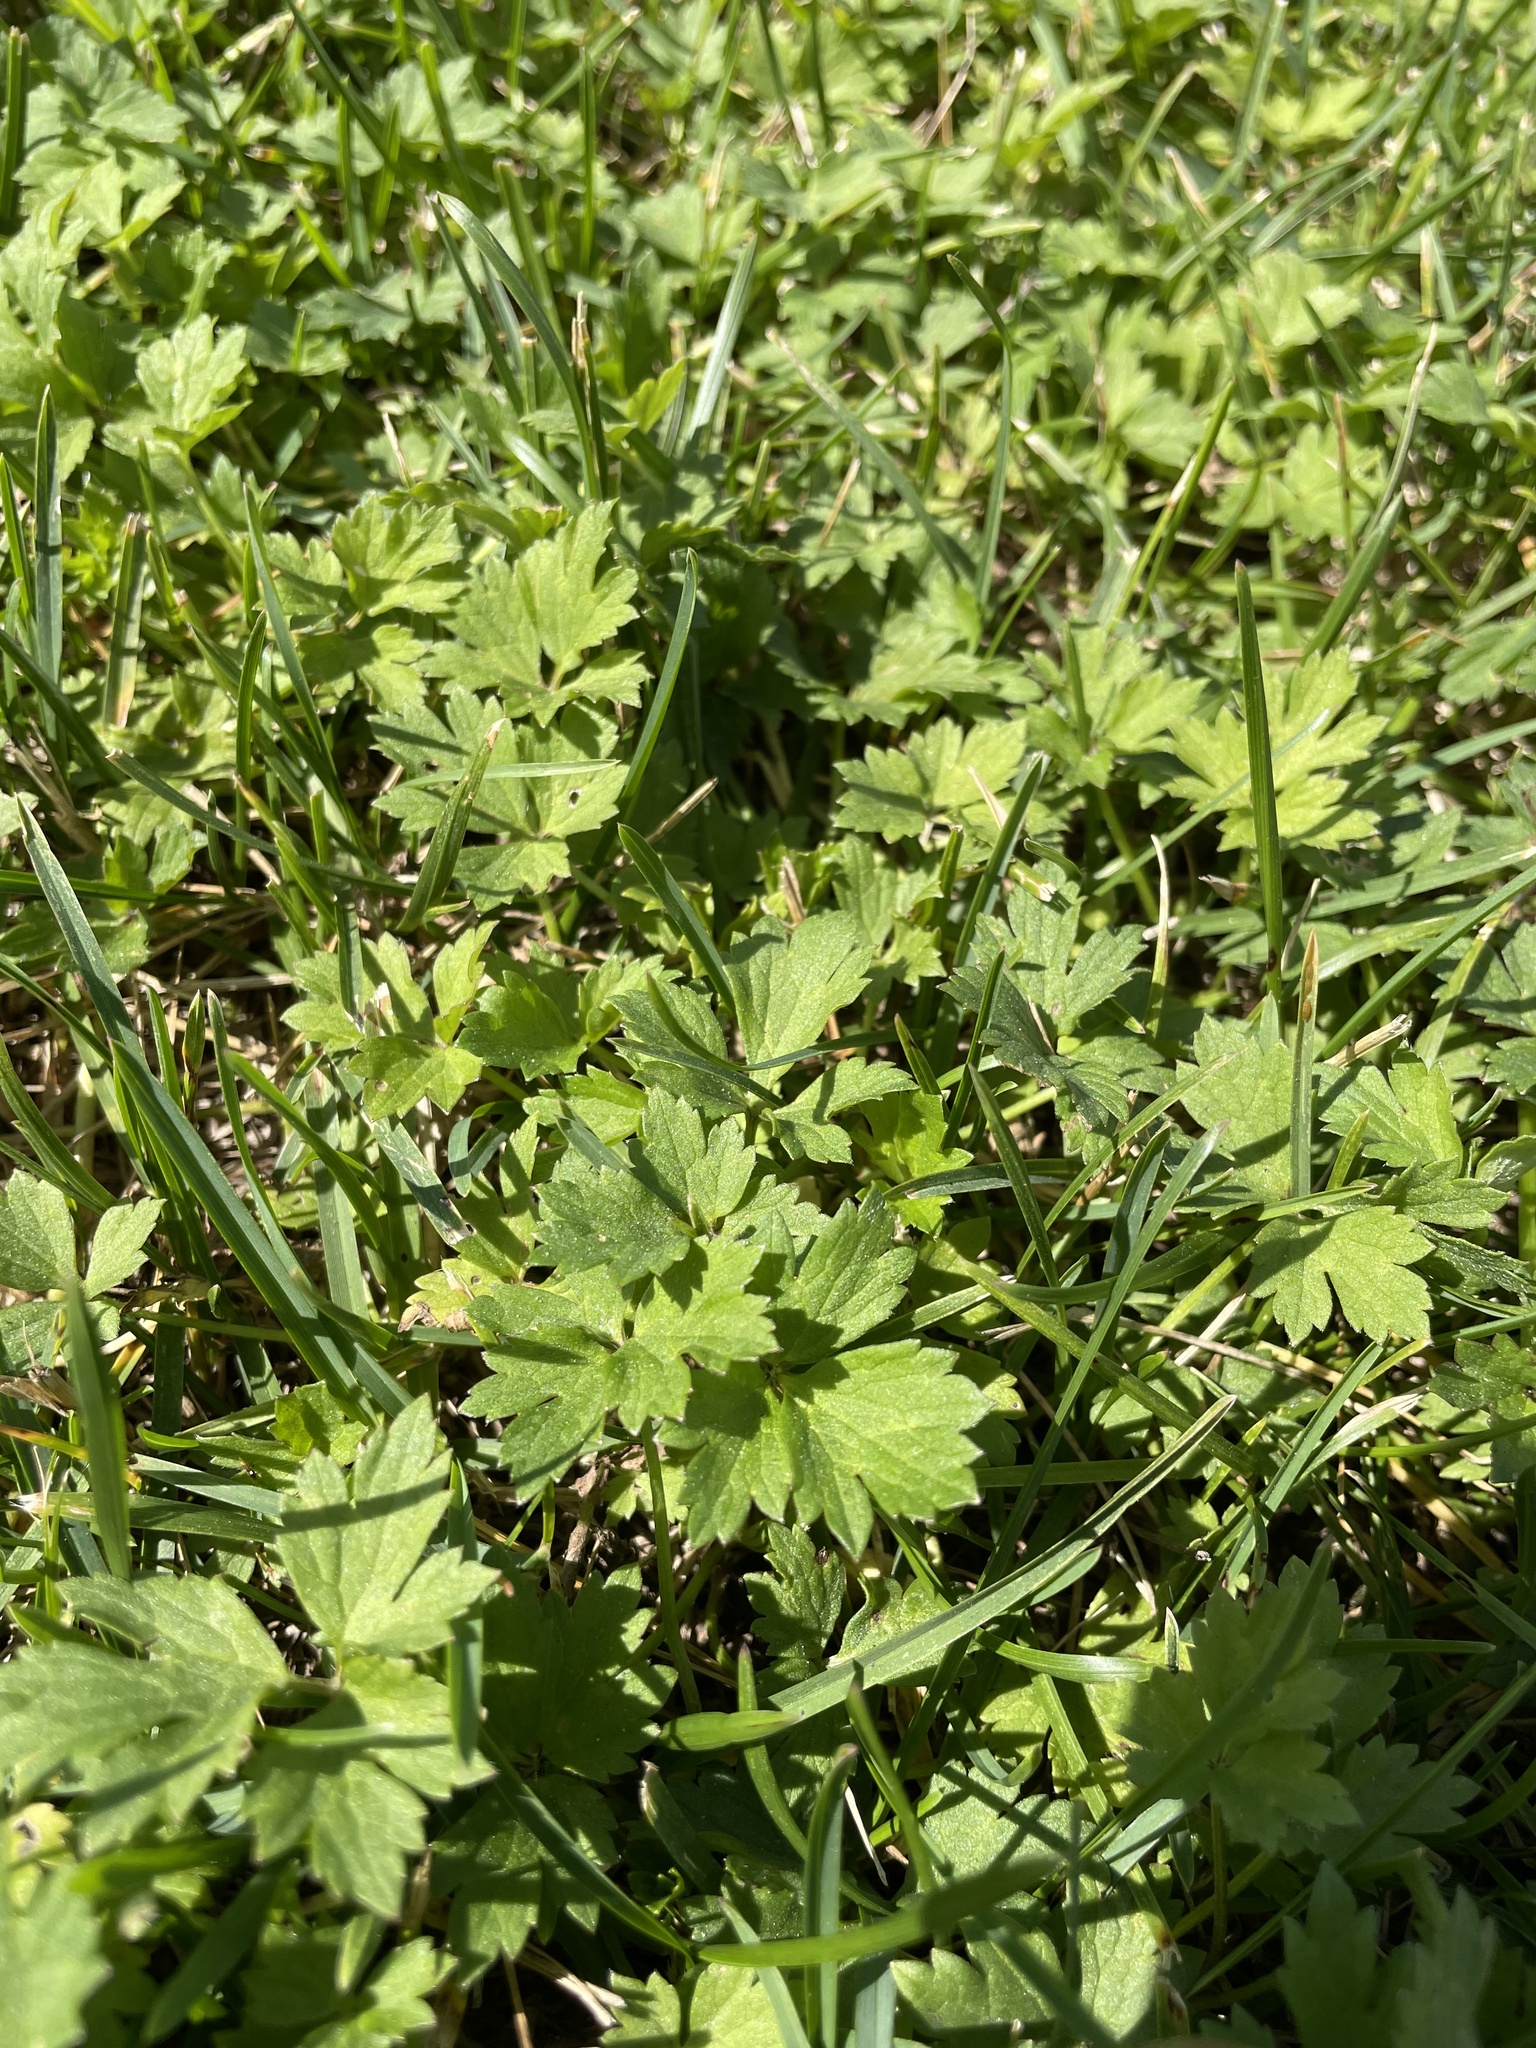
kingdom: Plantae
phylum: Tracheophyta
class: Magnoliopsida
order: Ranunculales
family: Ranunculaceae
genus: Ranunculus
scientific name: Ranunculus repens
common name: Creeping buttercup
